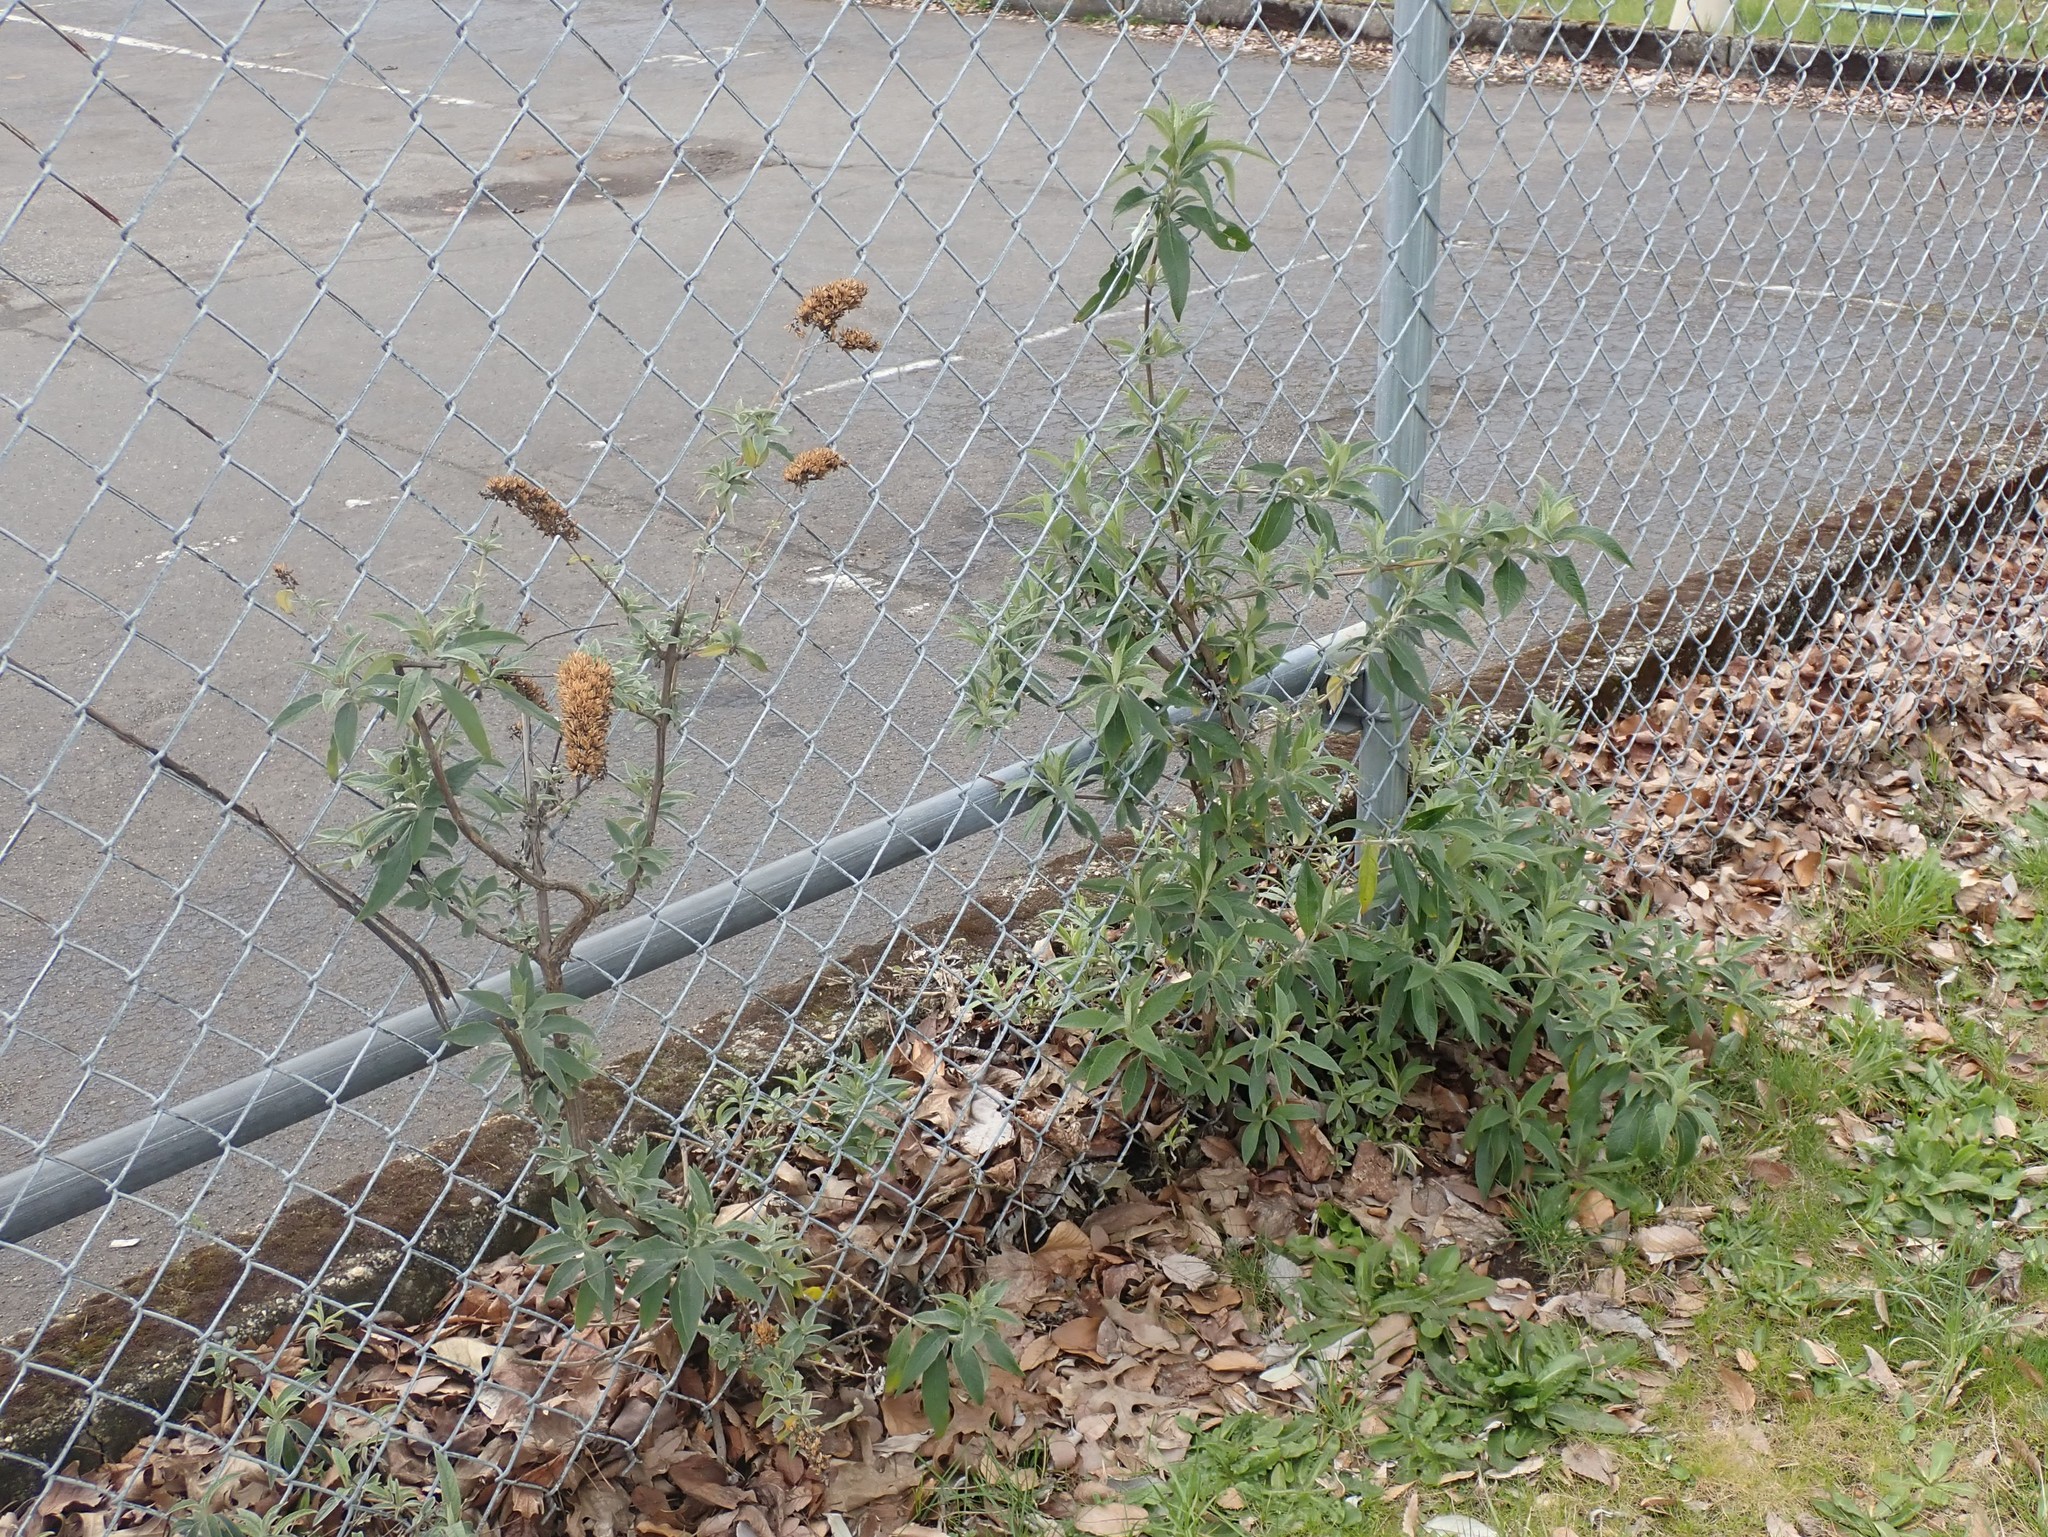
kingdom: Plantae
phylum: Tracheophyta
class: Magnoliopsida
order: Lamiales
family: Scrophulariaceae
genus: Buddleja
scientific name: Buddleja davidii
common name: Butterfly-bush
